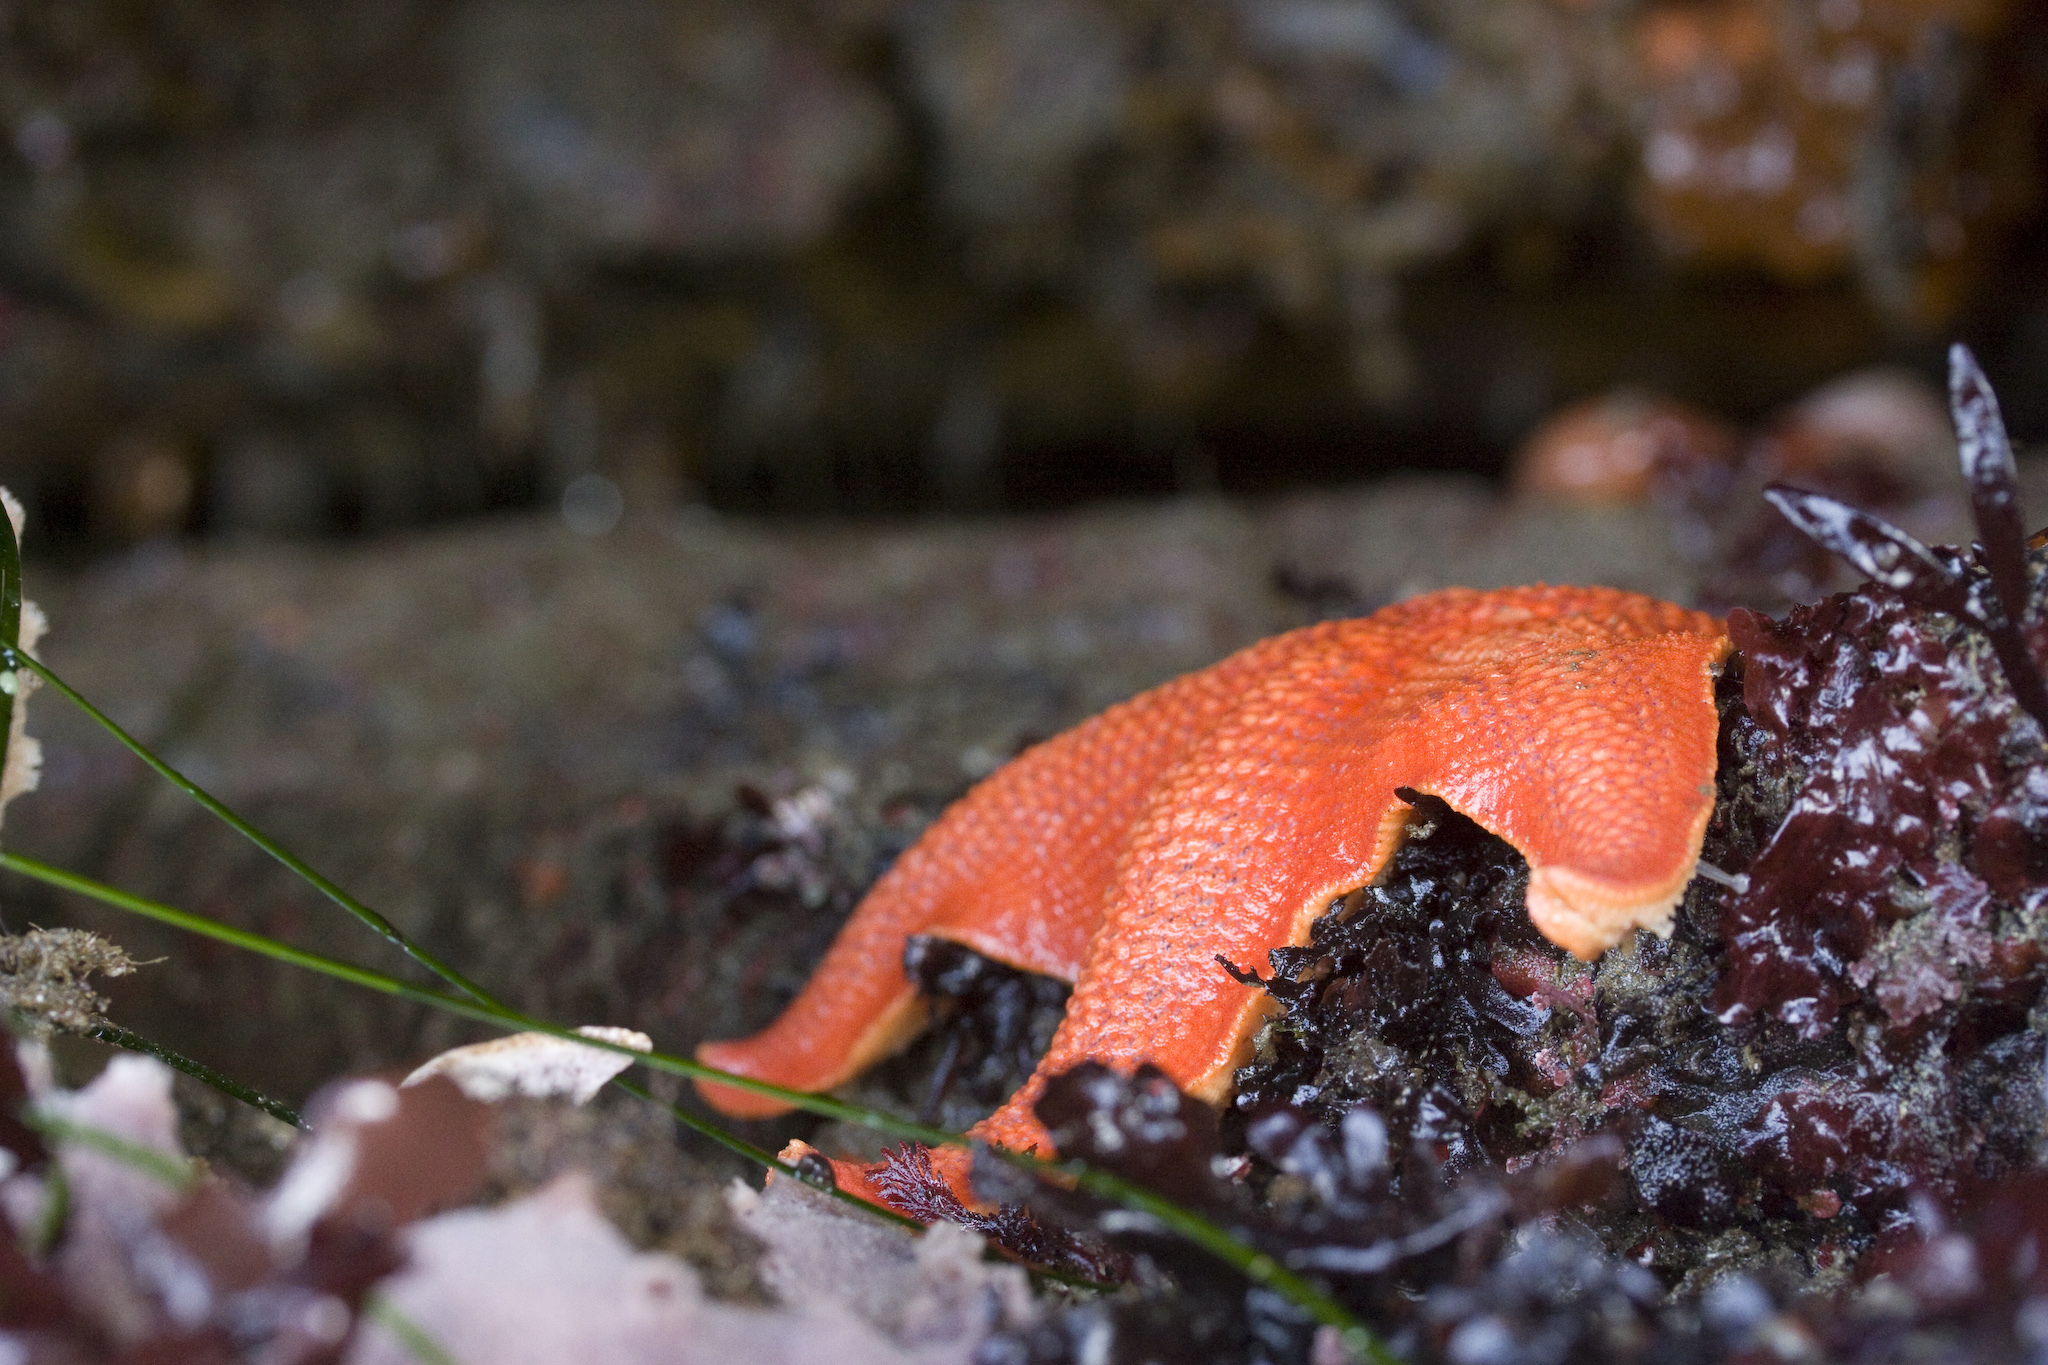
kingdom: Animalia
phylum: Echinodermata
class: Asteroidea
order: Valvatida
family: Asterinidae
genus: Patiria
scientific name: Patiria miniata
